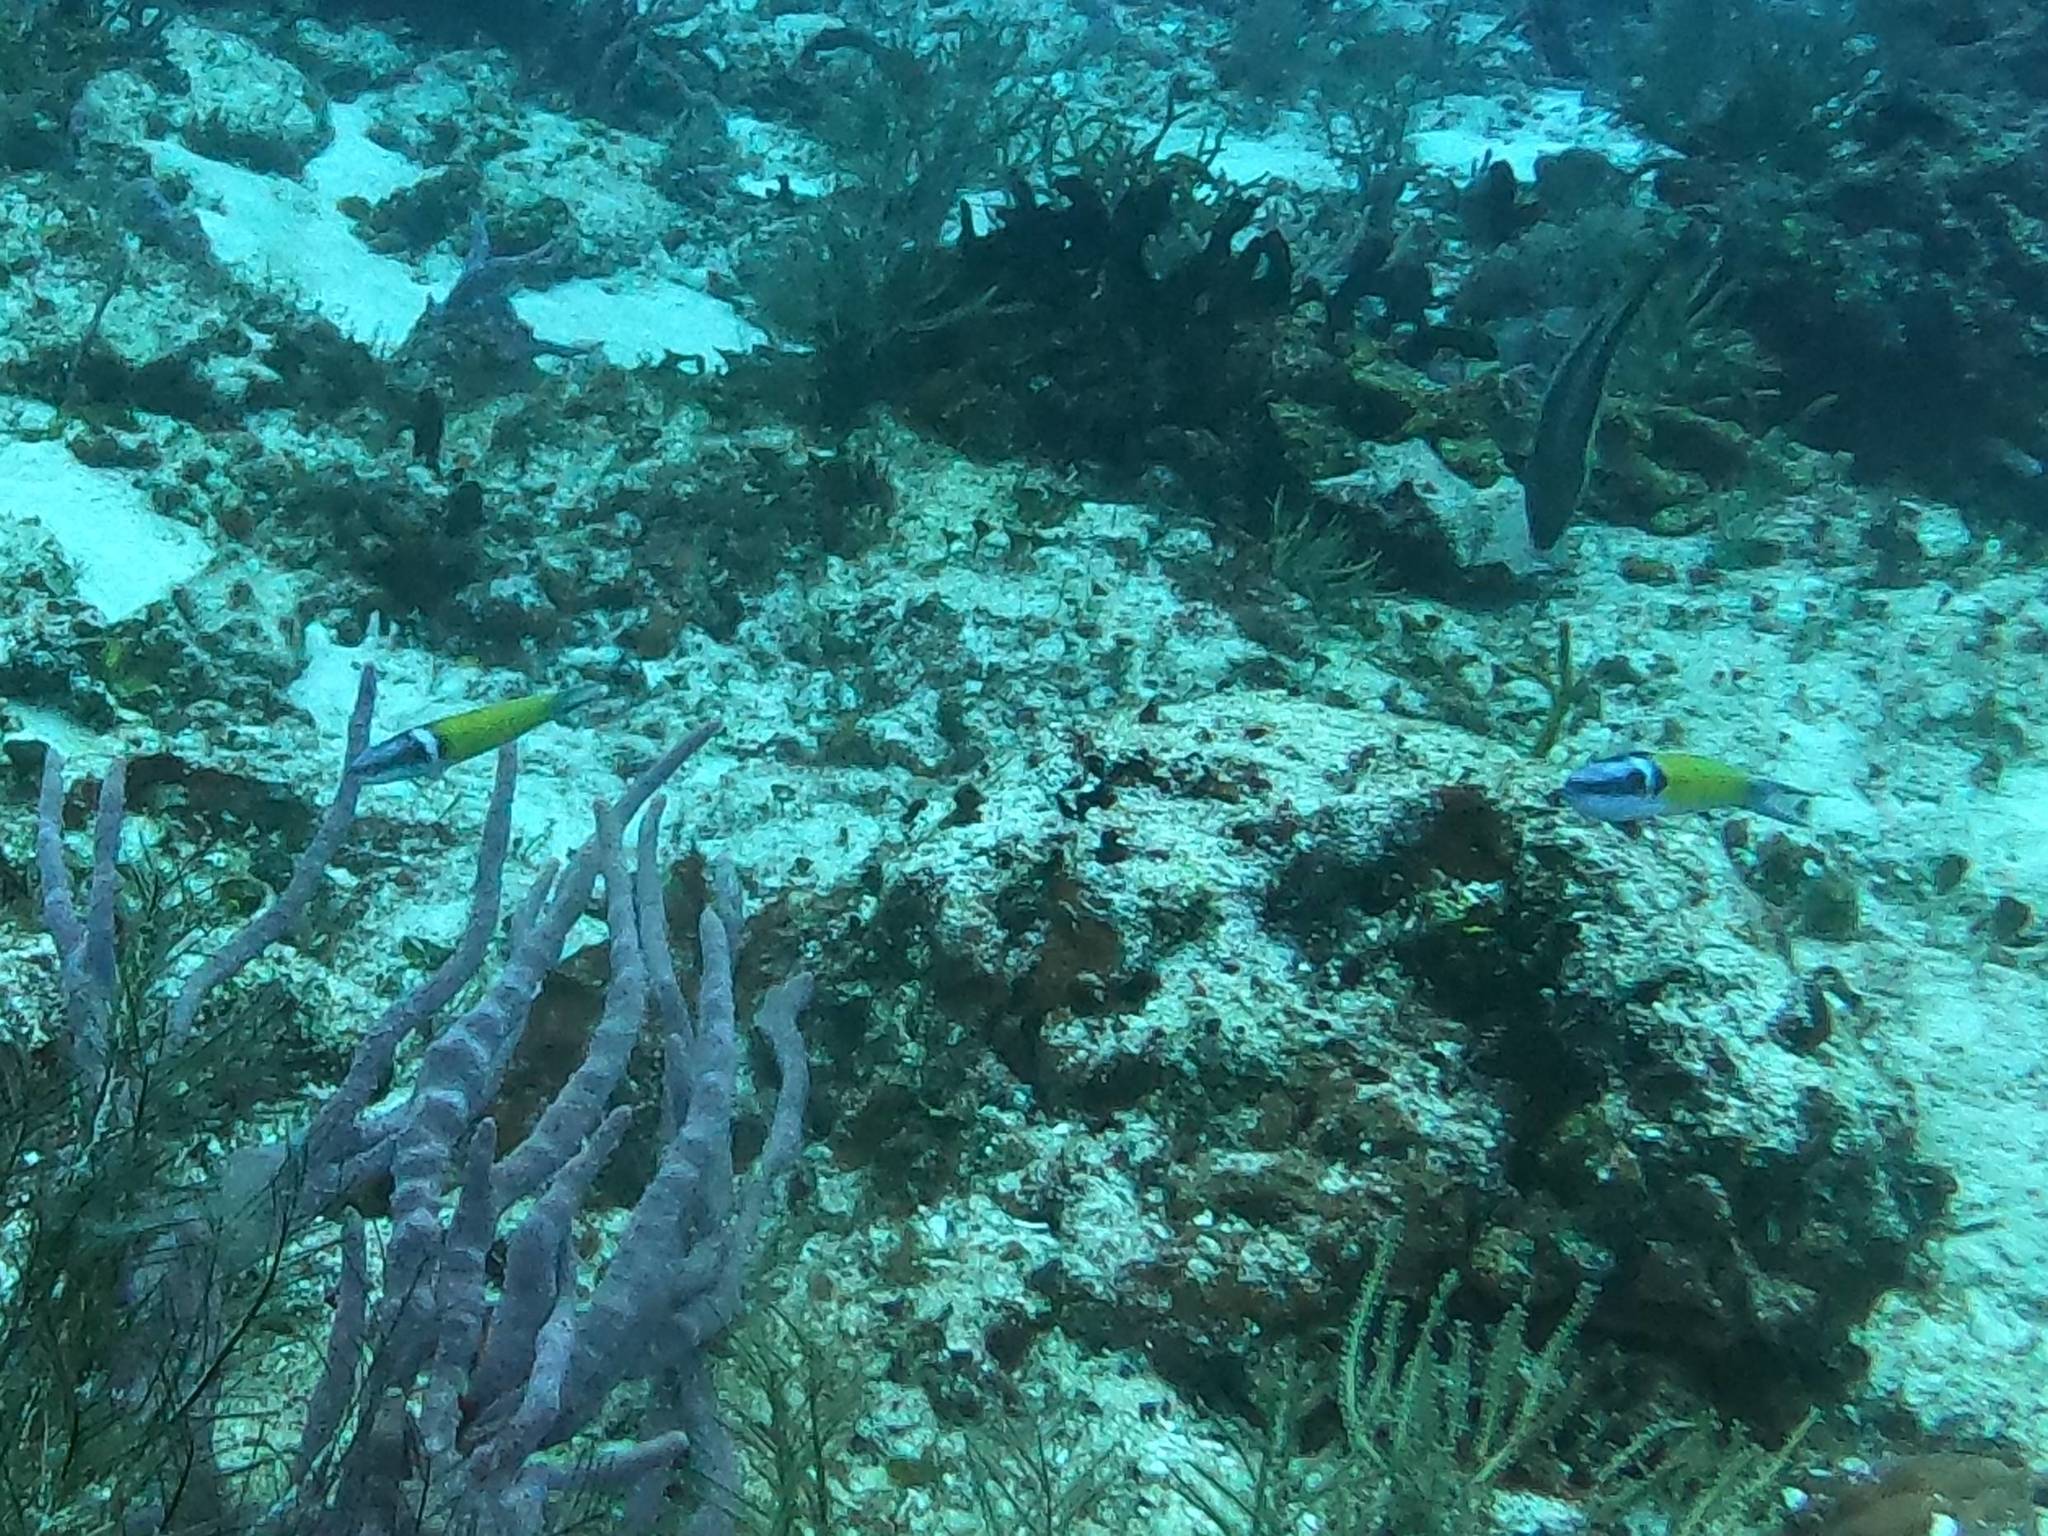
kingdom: Animalia
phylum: Chordata
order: Perciformes
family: Labridae
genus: Thalassoma
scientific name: Thalassoma bifasciatum
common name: Bluehead wrasse
